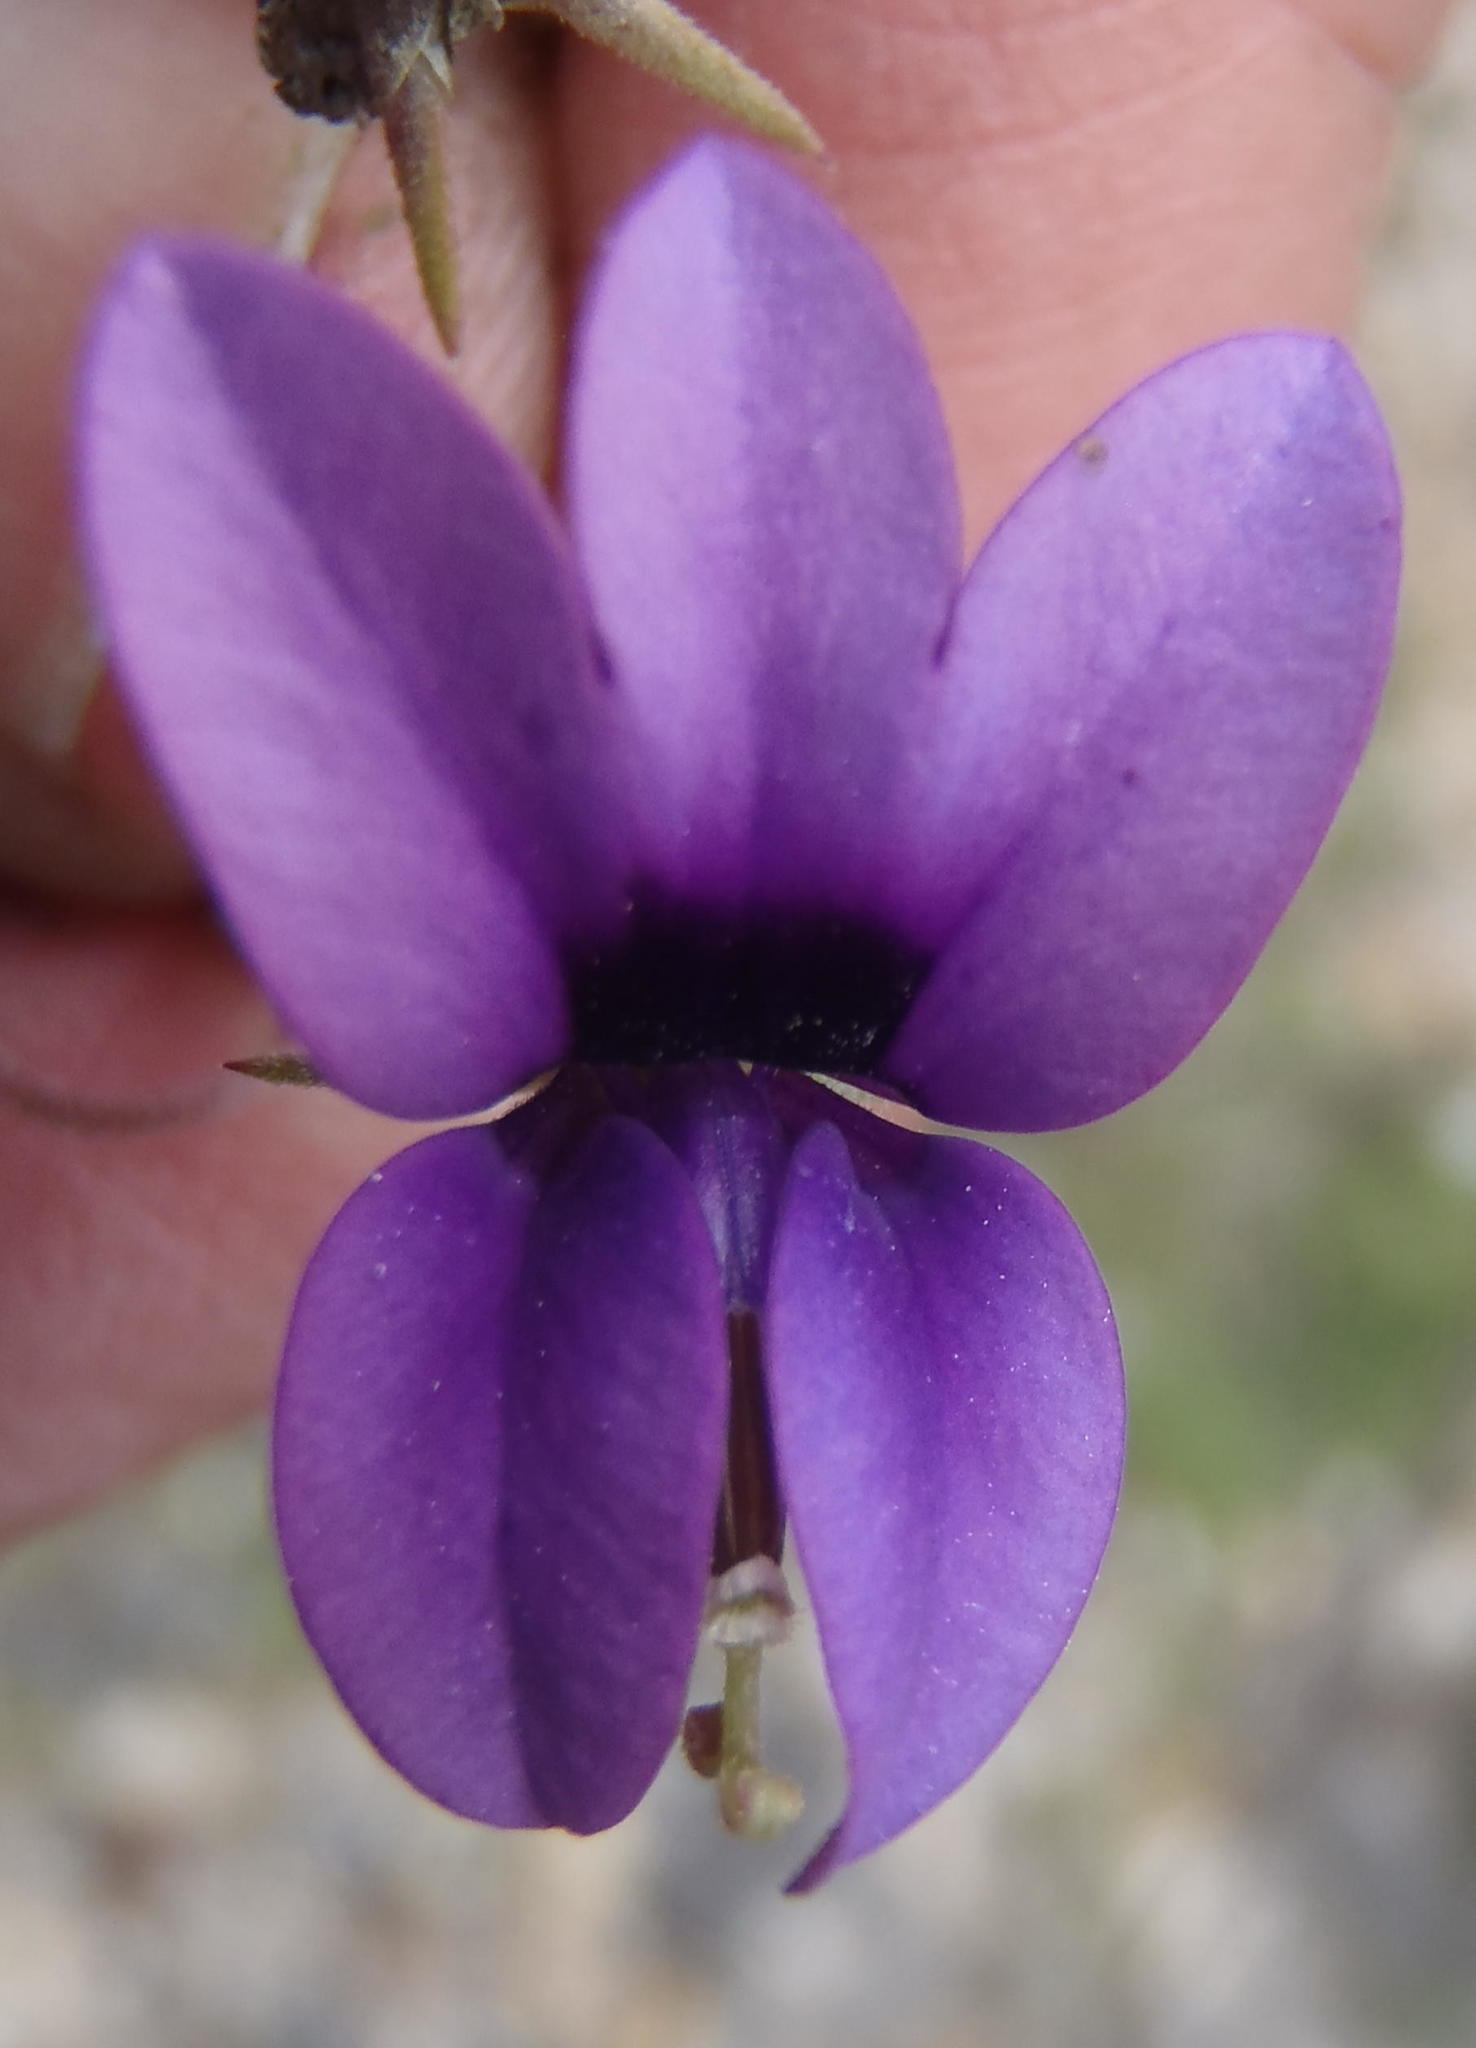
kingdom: Plantae
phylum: Tracheophyta
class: Magnoliopsida
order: Asterales
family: Campanulaceae
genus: Monopsis
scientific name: Monopsis simplex
